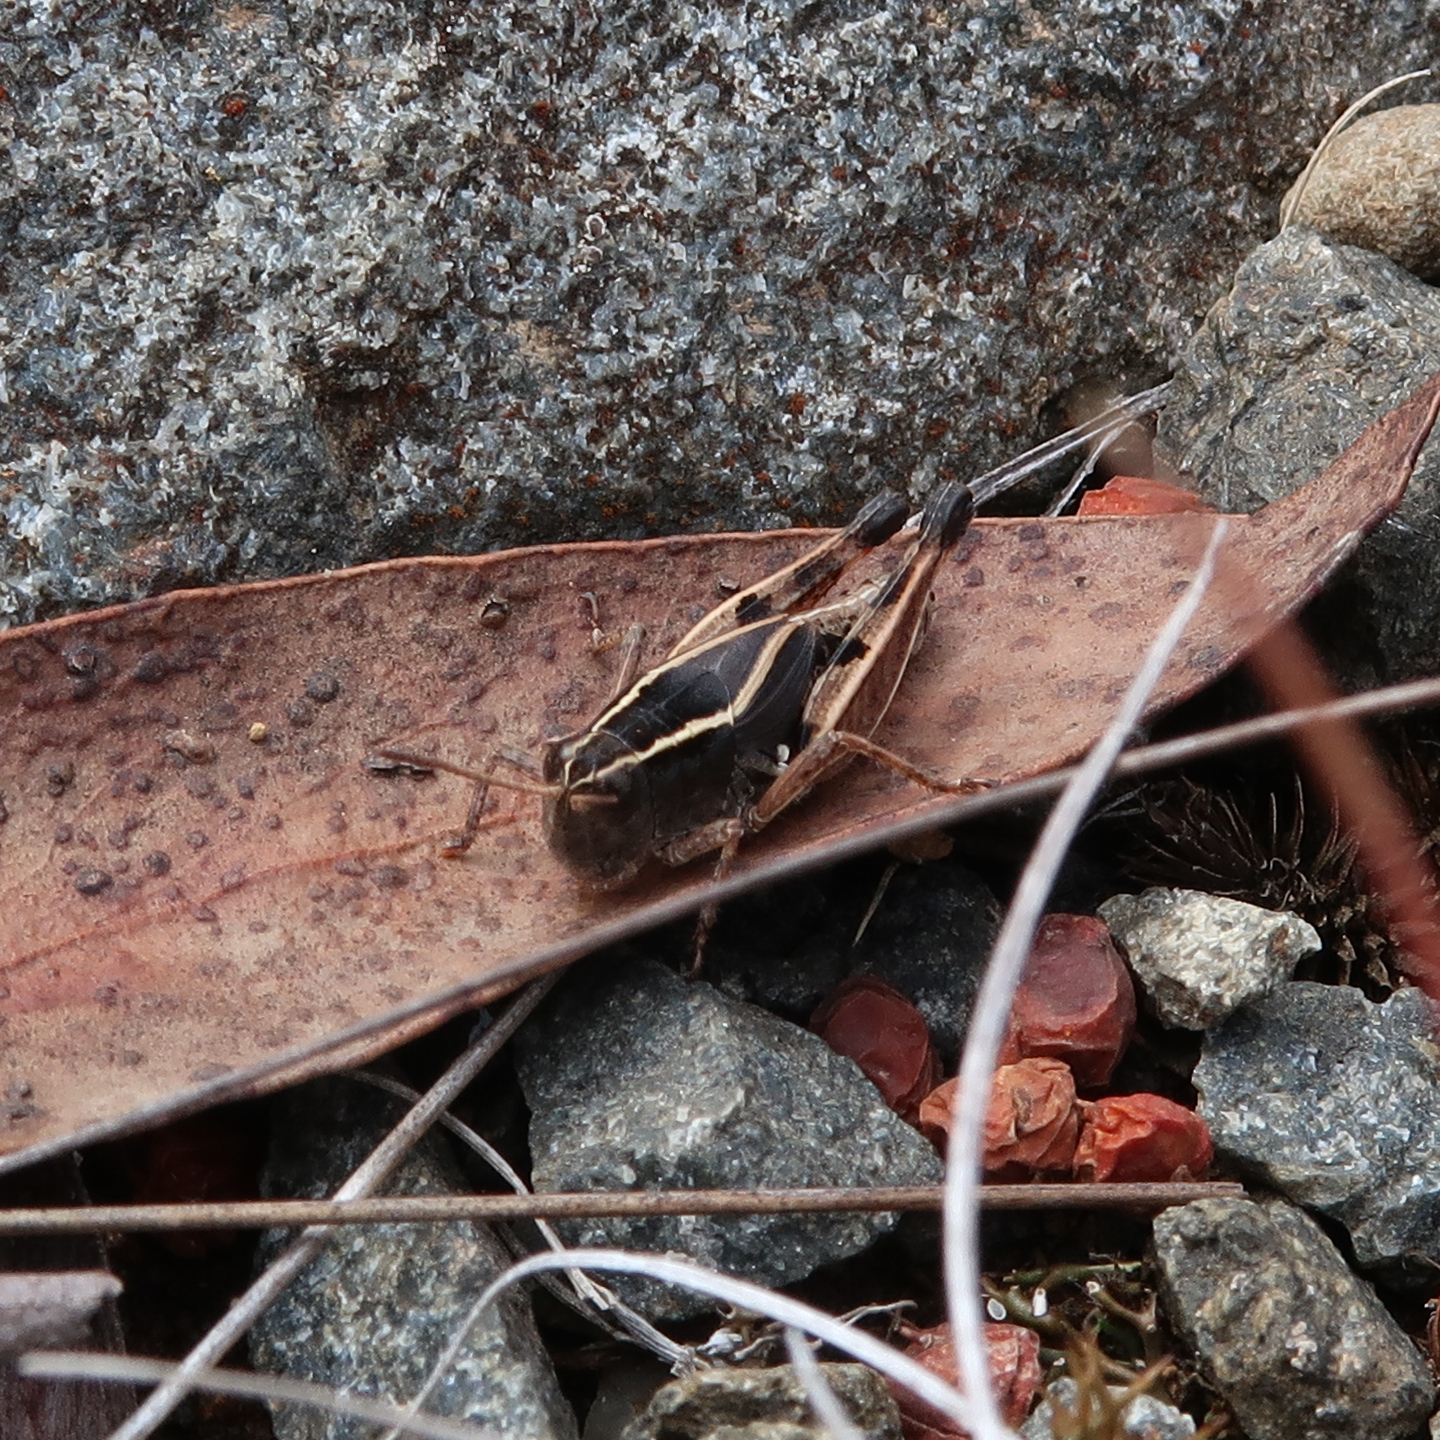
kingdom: Animalia
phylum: Arthropoda
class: Insecta
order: Orthoptera
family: Acrididae
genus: Phaulacridium
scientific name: Phaulacridium vittatum
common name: Wingless grasshopper
